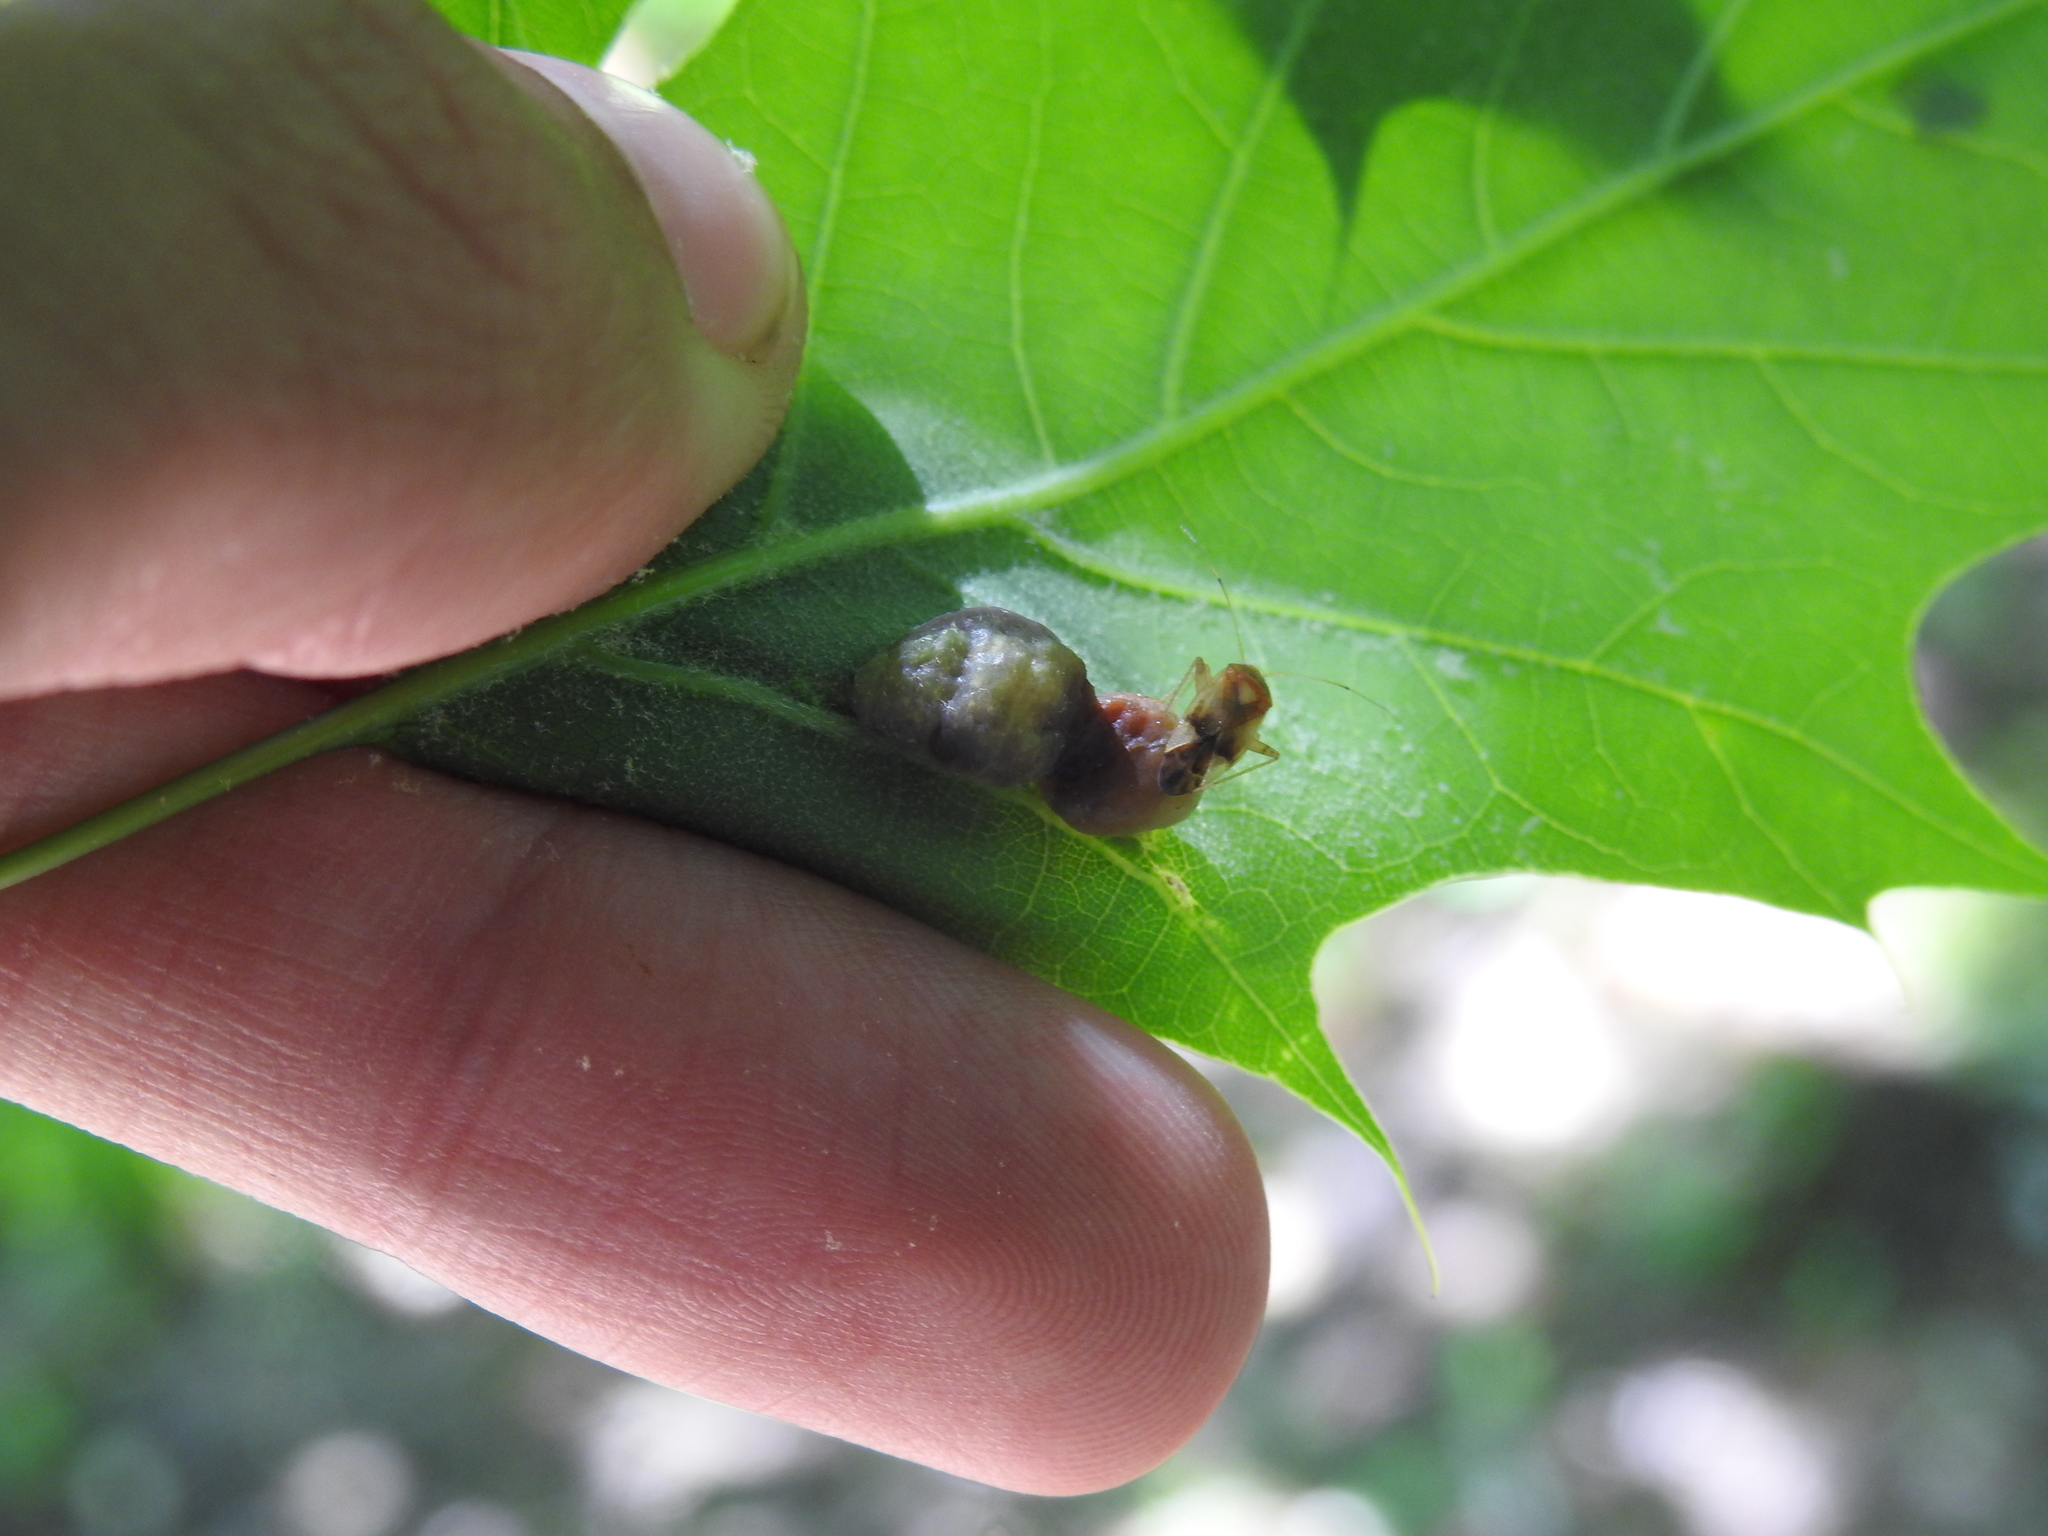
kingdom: Animalia
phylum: Arthropoda
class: Insecta
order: Diptera
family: Cecidomyiidae
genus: Macrodiplosis
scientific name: Macrodiplosis majalis
